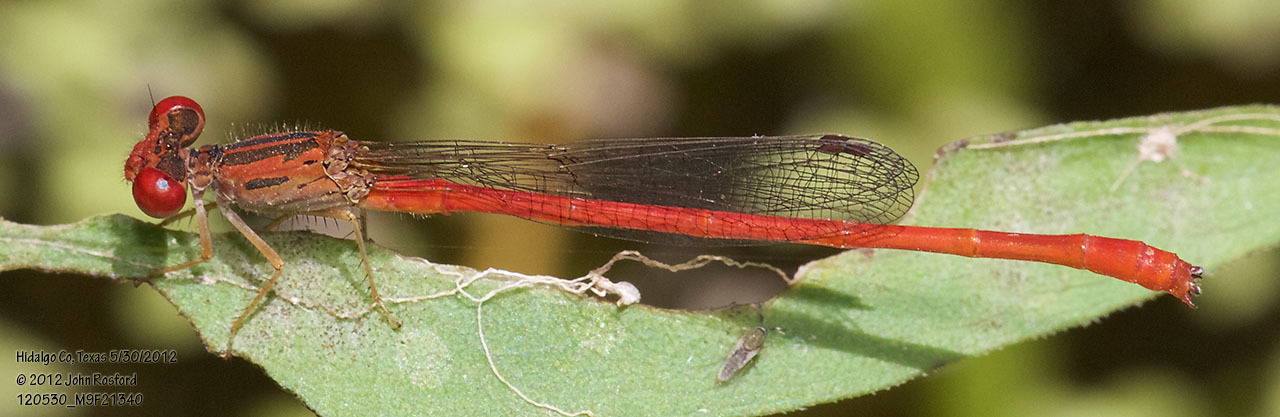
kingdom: Animalia
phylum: Arthropoda
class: Insecta
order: Odonata
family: Coenagrionidae
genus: Telebasis
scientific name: Telebasis salva
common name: Desert firetail
